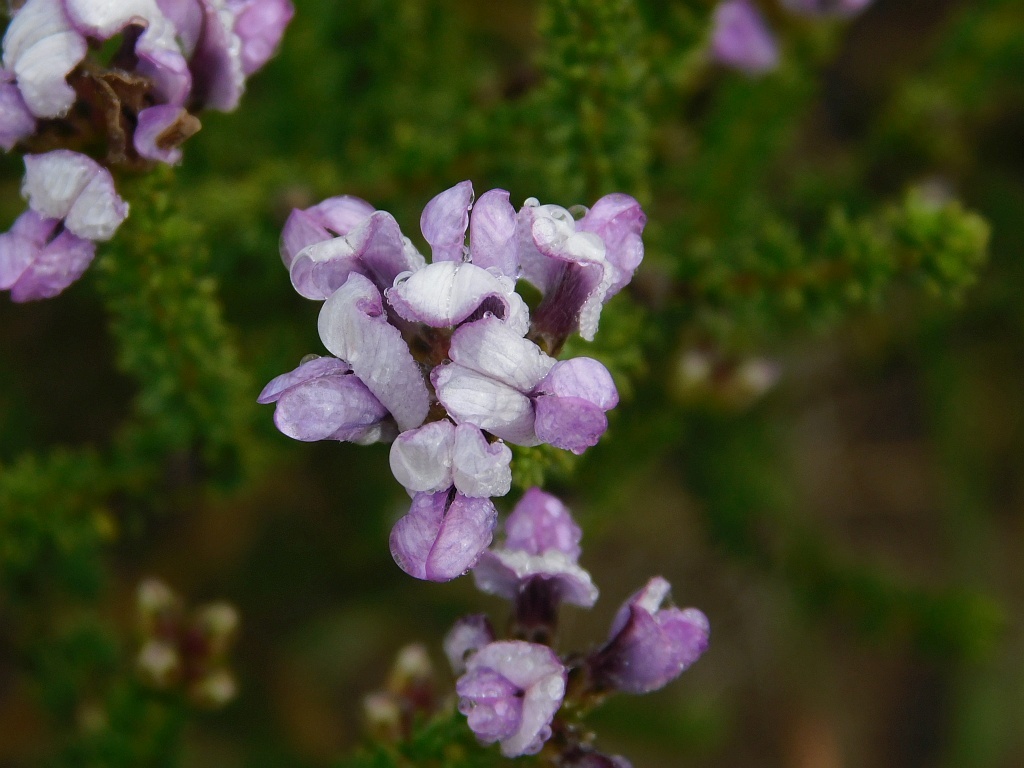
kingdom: Plantae
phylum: Tracheophyta
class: Magnoliopsida
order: Fabales
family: Fabaceae
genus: Aspalathus
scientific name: Aspalathus nigra
